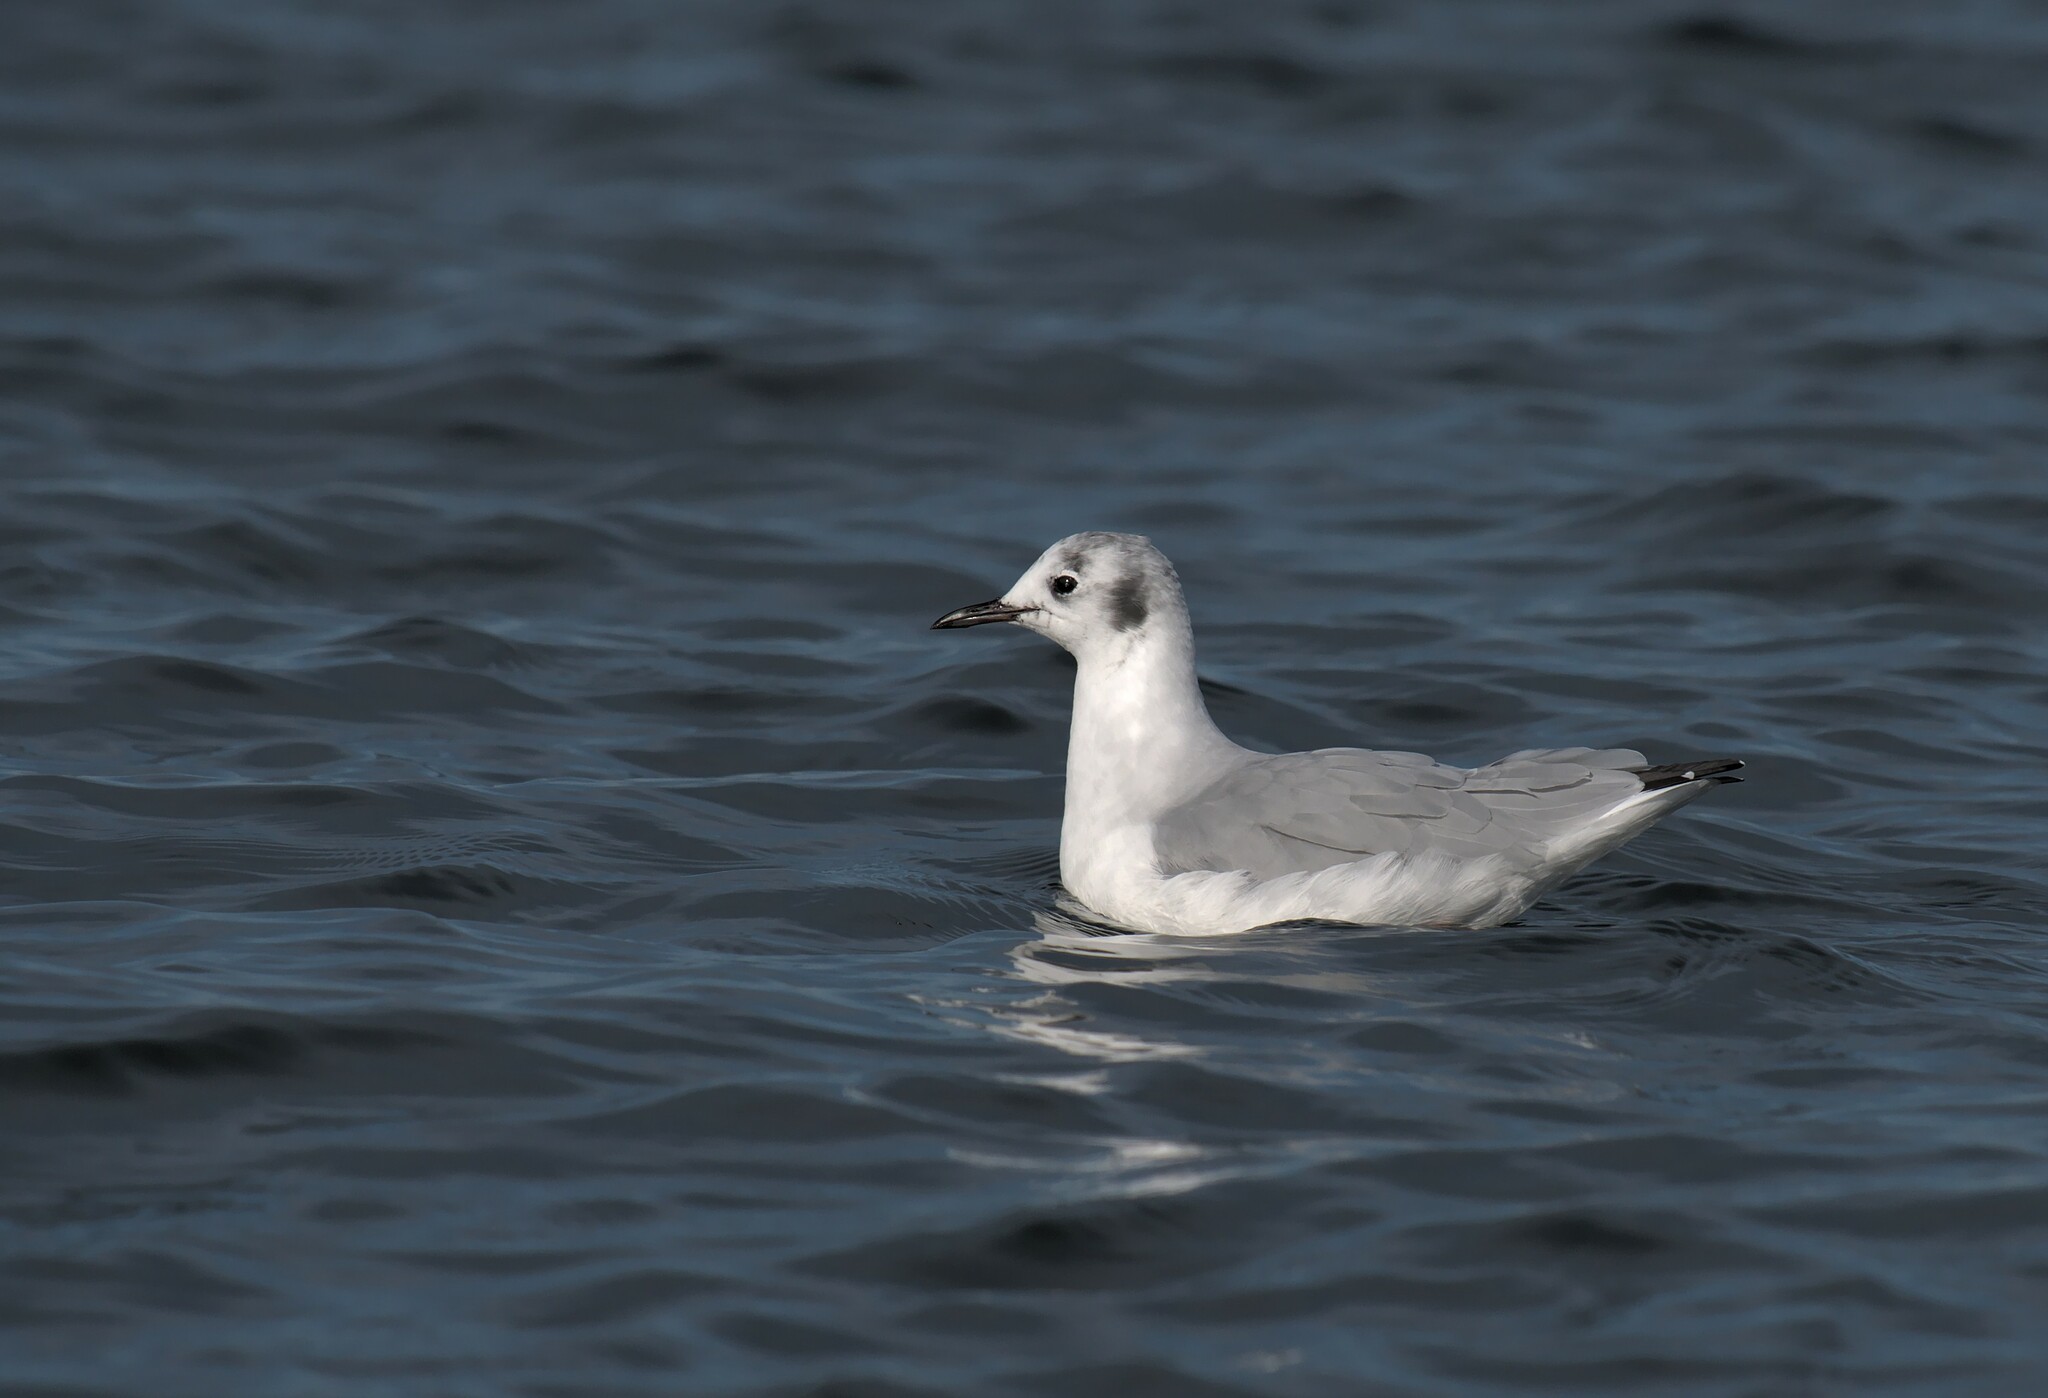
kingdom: Animalia
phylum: Chordata
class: Aves
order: Charadriiformes
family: Laridae
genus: Chroicocephalus
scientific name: Chroicocephalus philadelphia
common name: Bonaparte's gull
